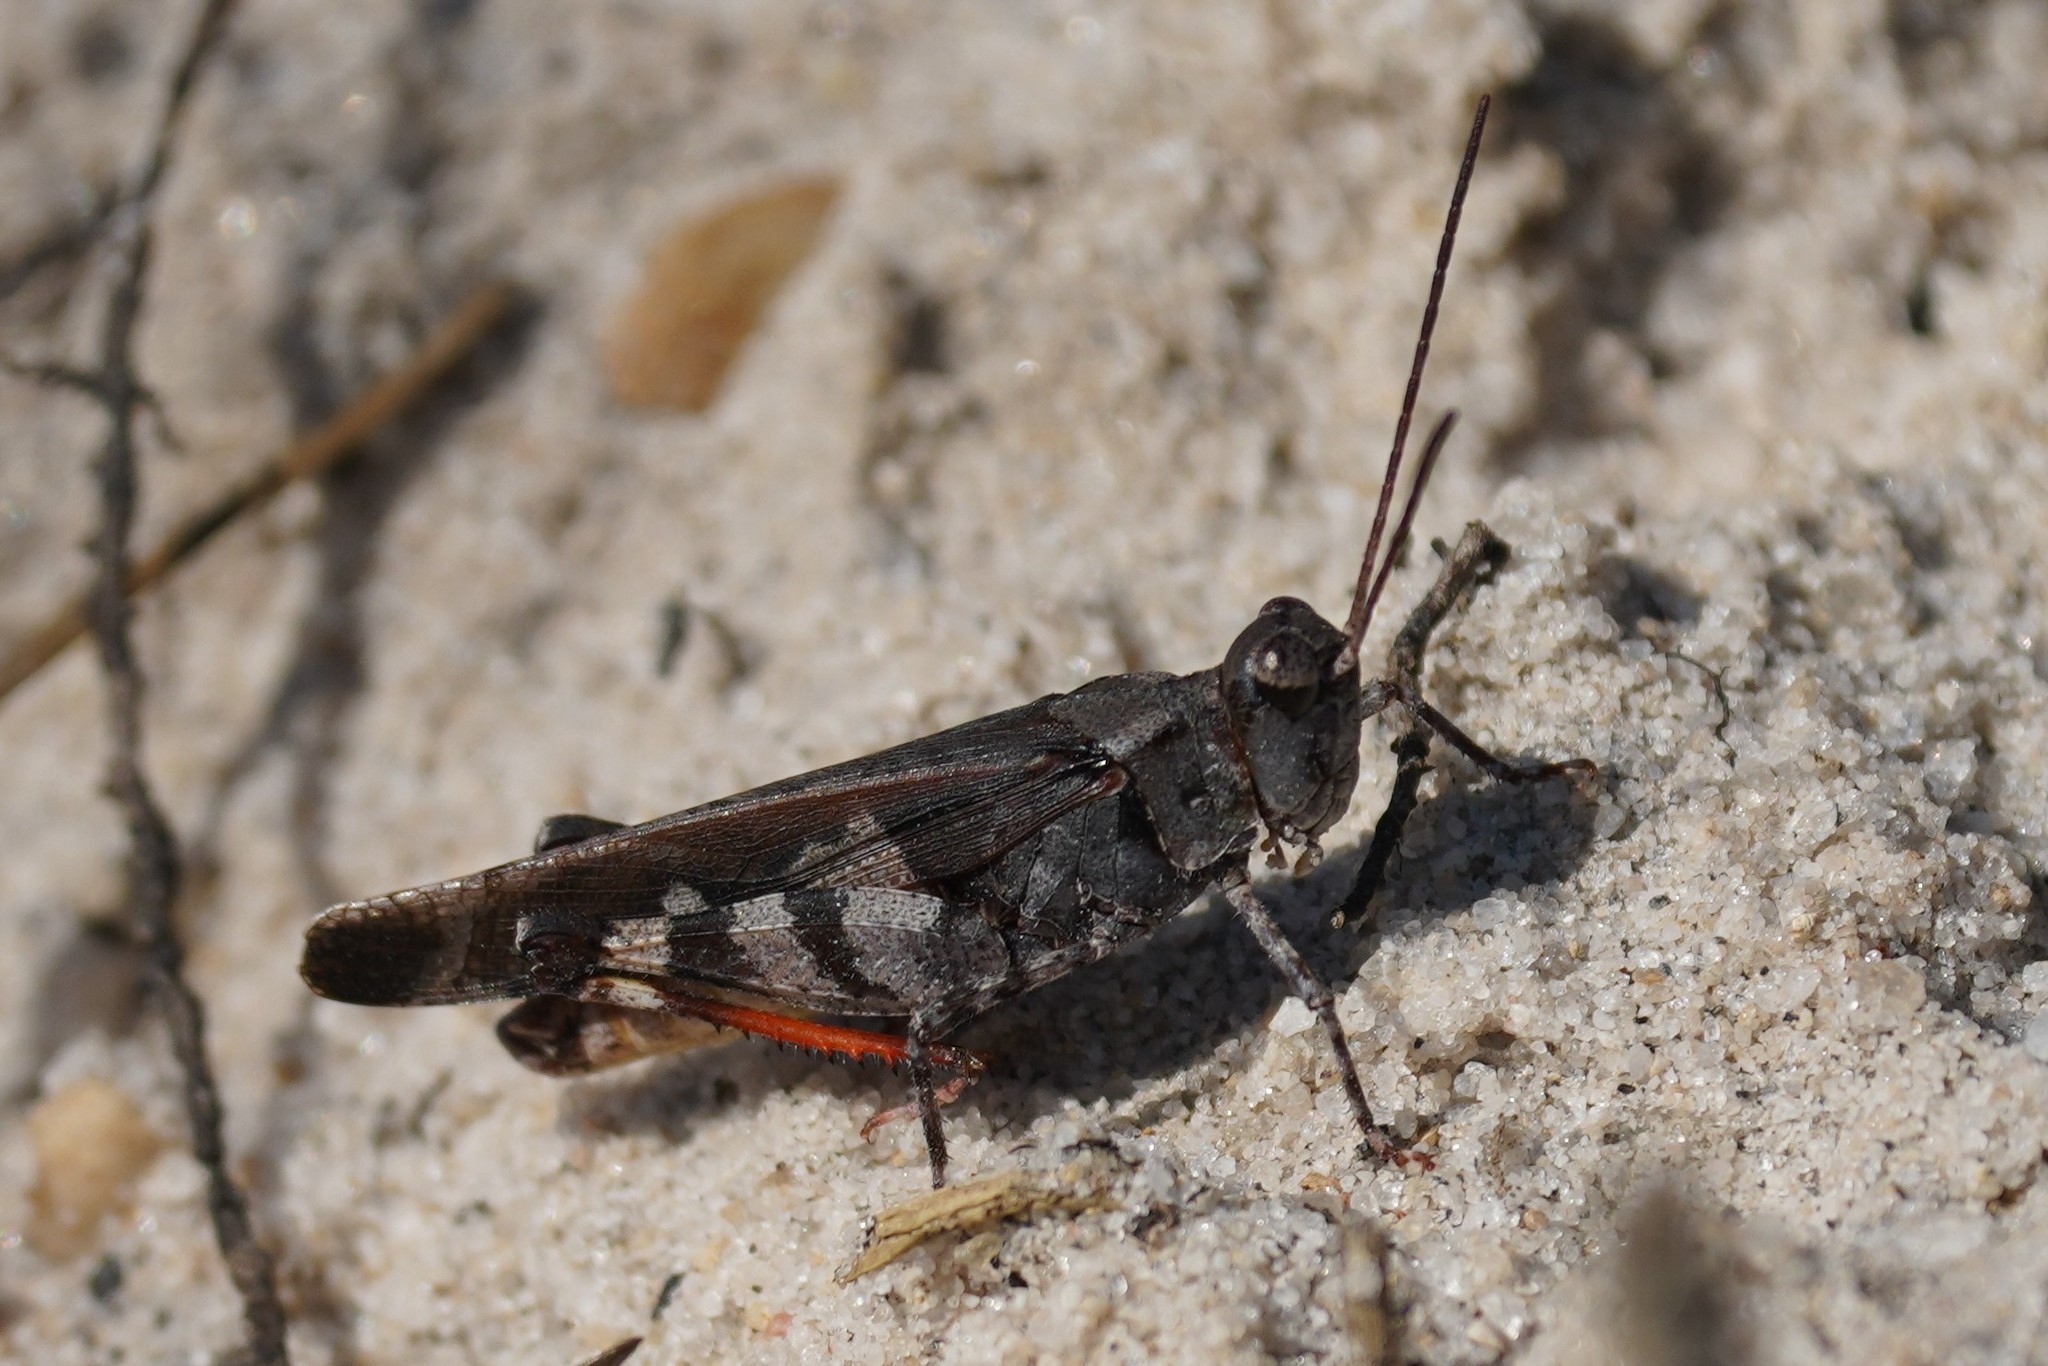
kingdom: Animalia
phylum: Arthropoda
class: Insecta
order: Orthoptera
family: Acrididae
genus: Spharagemon
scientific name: Spharagemon marmoratum
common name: Marbled grasshopper
